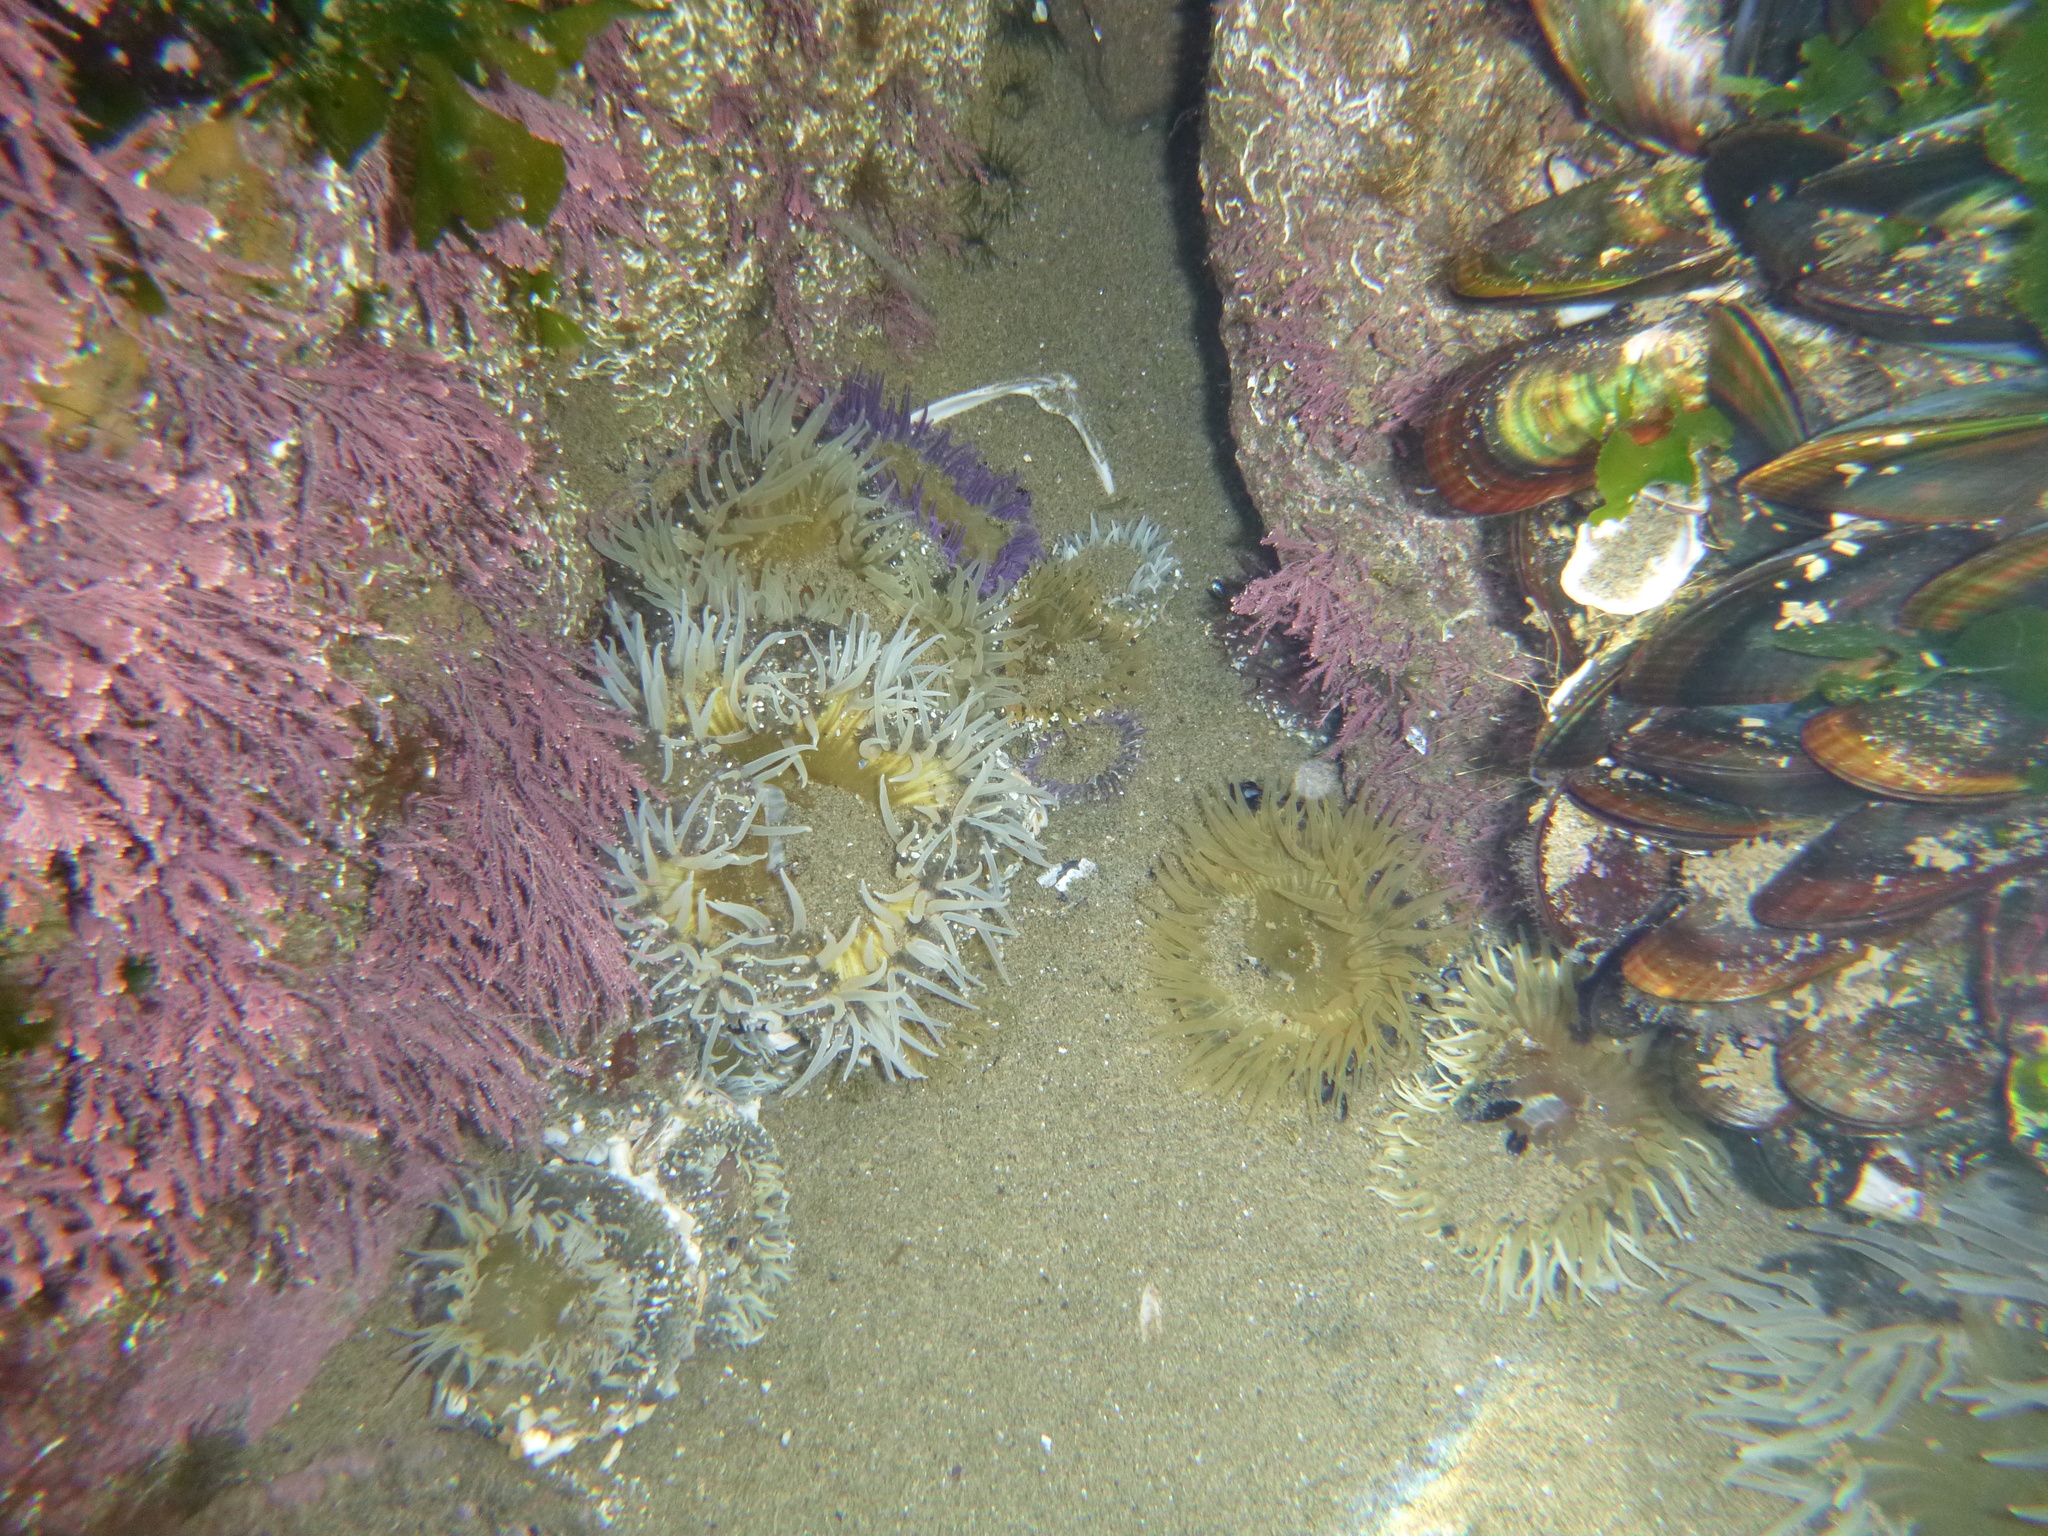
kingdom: Animalia
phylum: Cnidaria
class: Anthozoa
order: Actiniaria
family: Actiniidae
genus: Oulactis
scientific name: Oulactis magna
